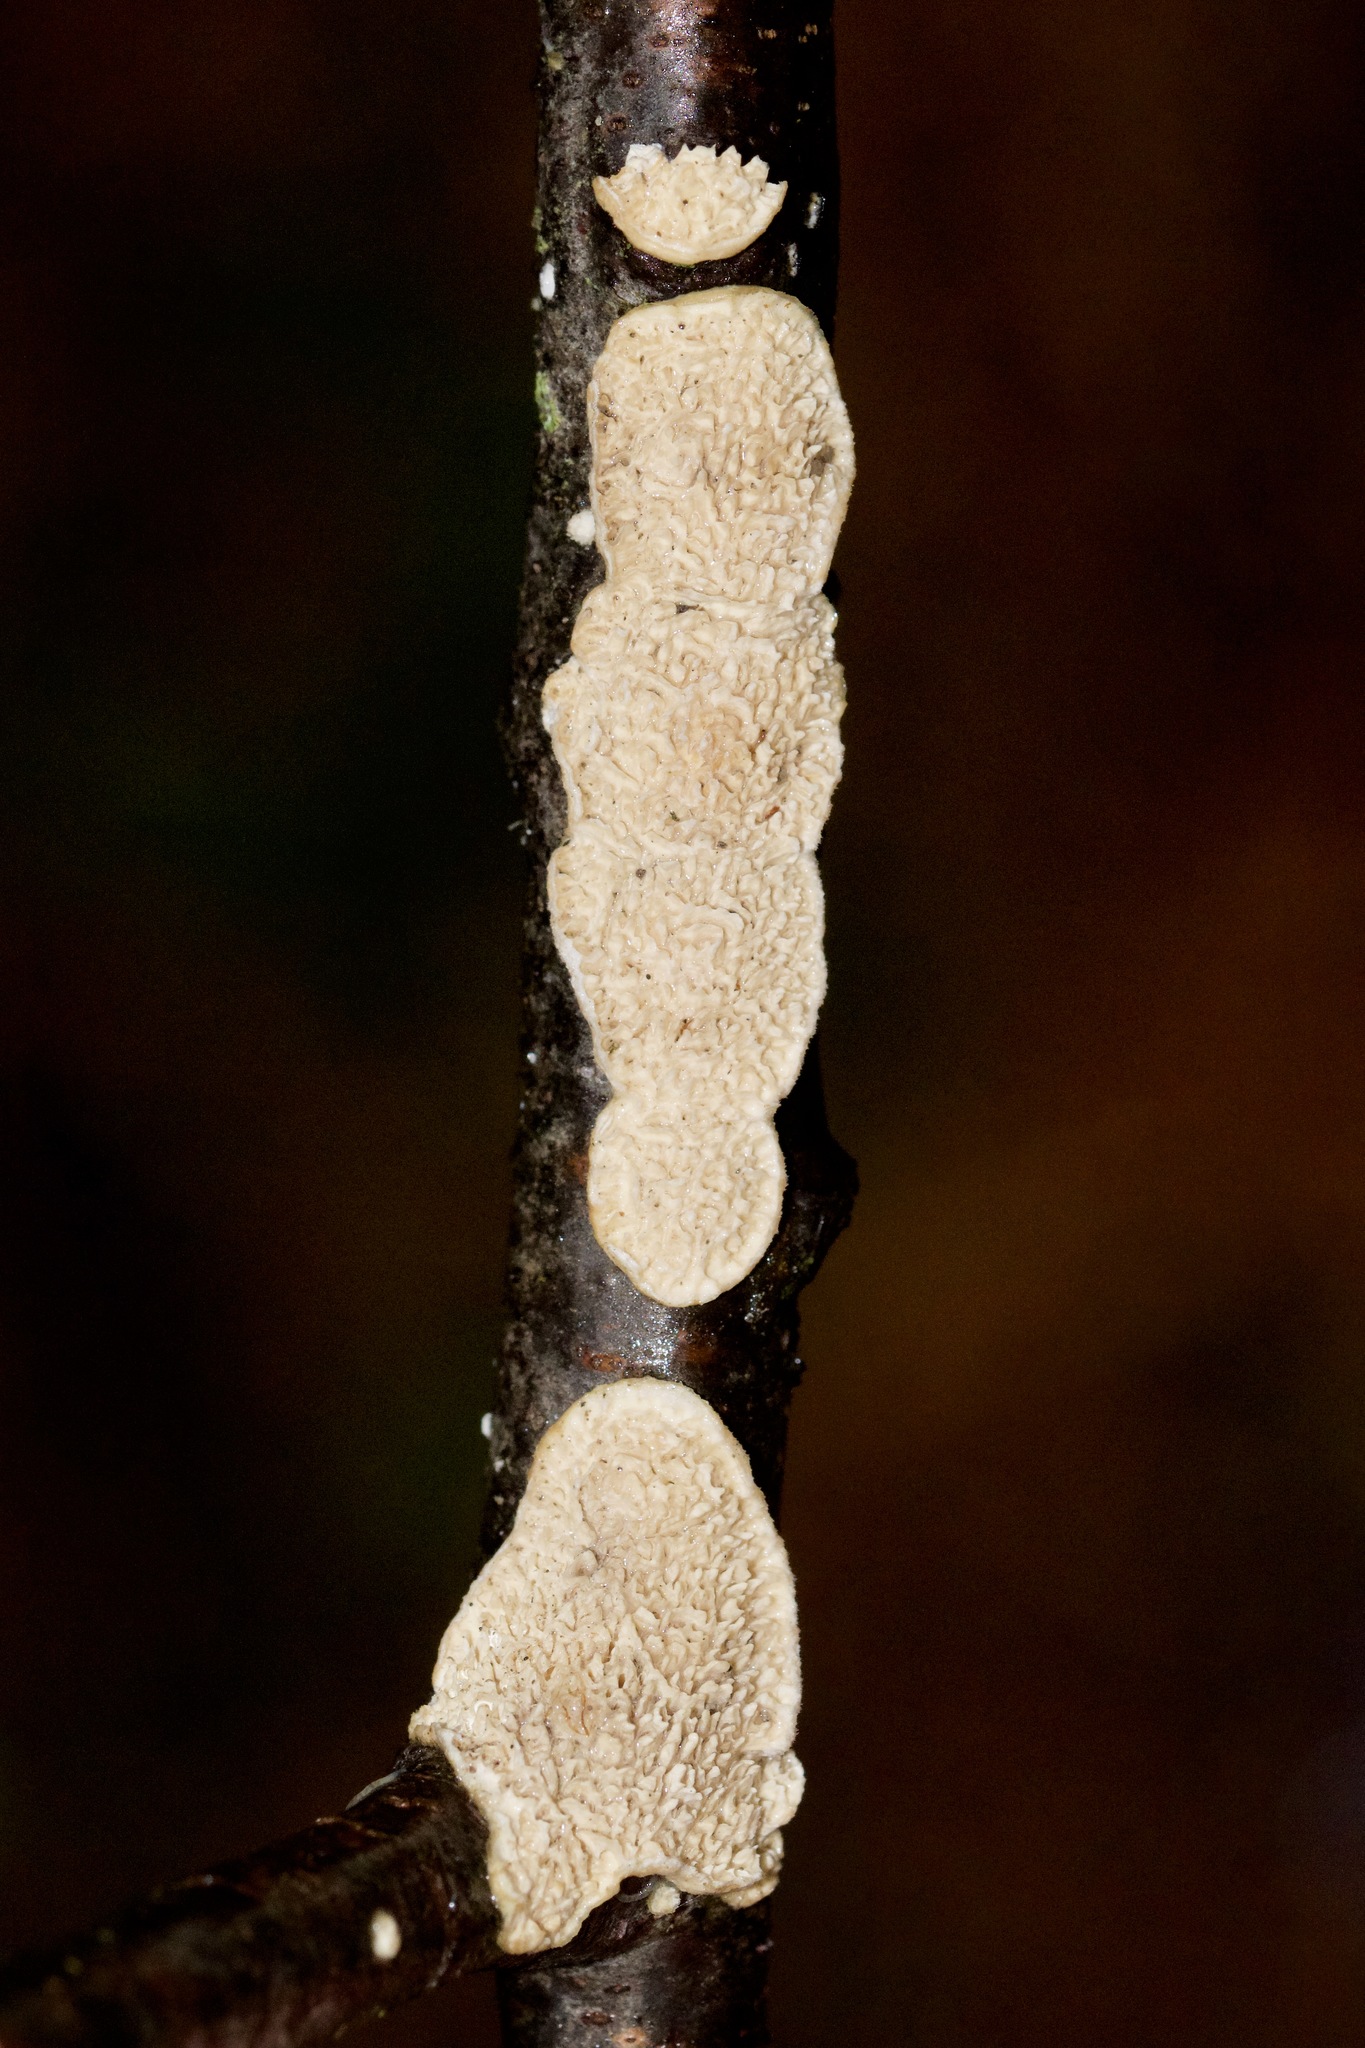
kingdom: Fungi
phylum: Basidiomycota
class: Agaricomycetes
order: Polyporales
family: Irpicaceae
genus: Irpex
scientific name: Irpex lacteus
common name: Milk-white toothed polypore
